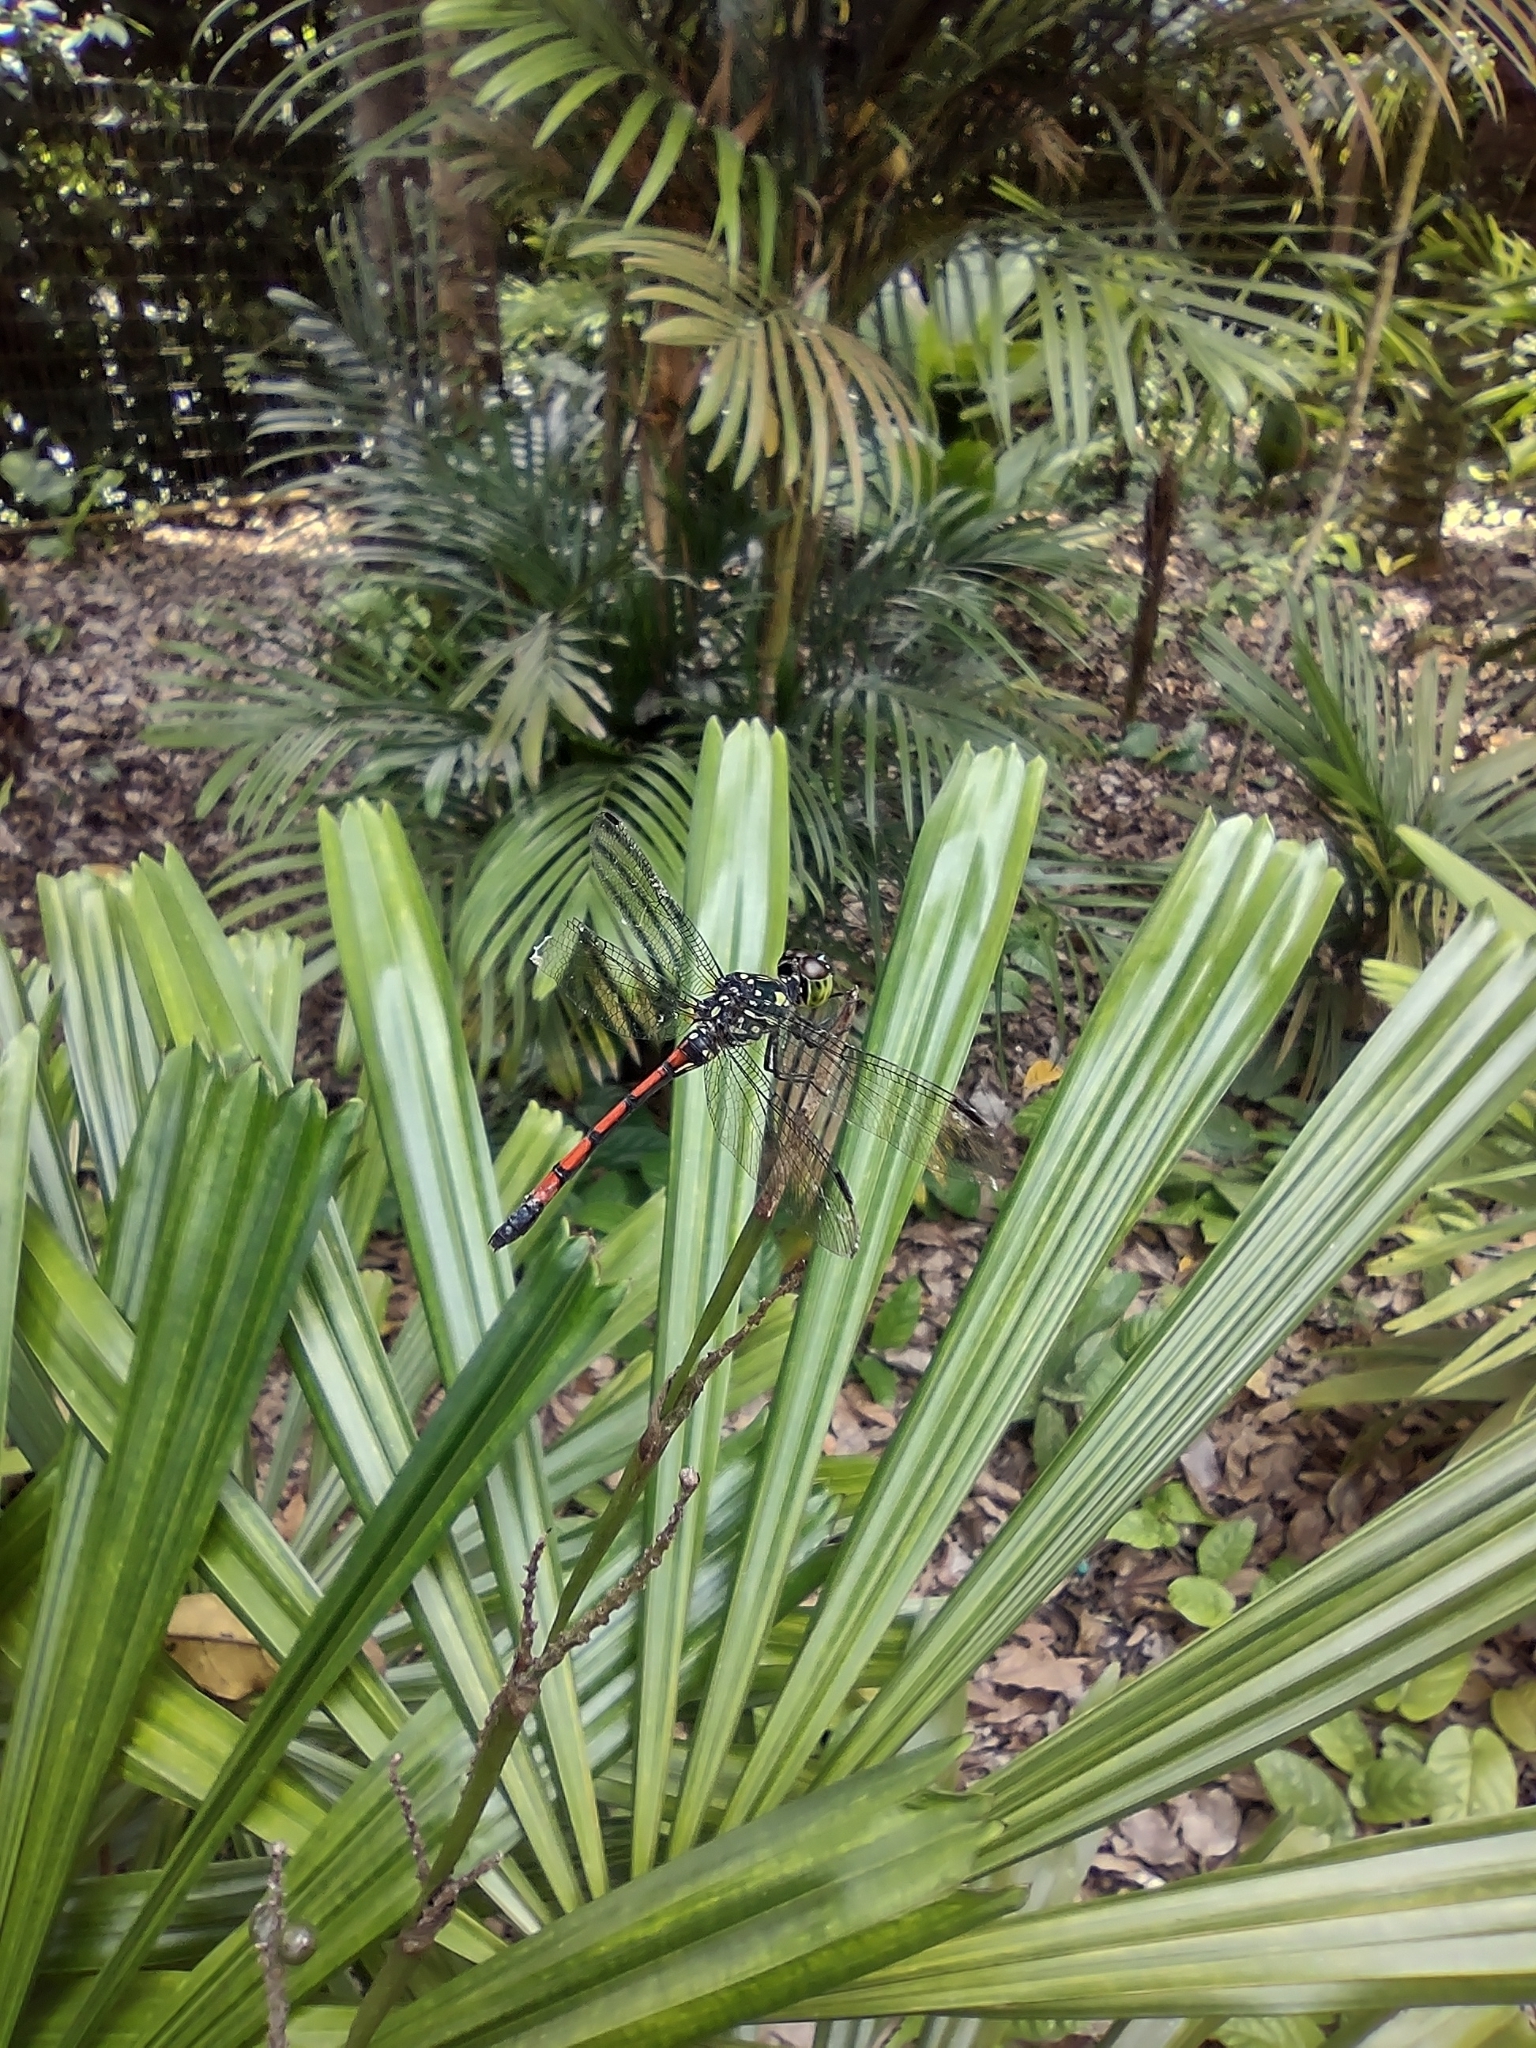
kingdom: Animalia
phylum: Arthropoda
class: Insecta
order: Odonata
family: Libellulidae
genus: Agrionoptera
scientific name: Agrionoptera insignis
